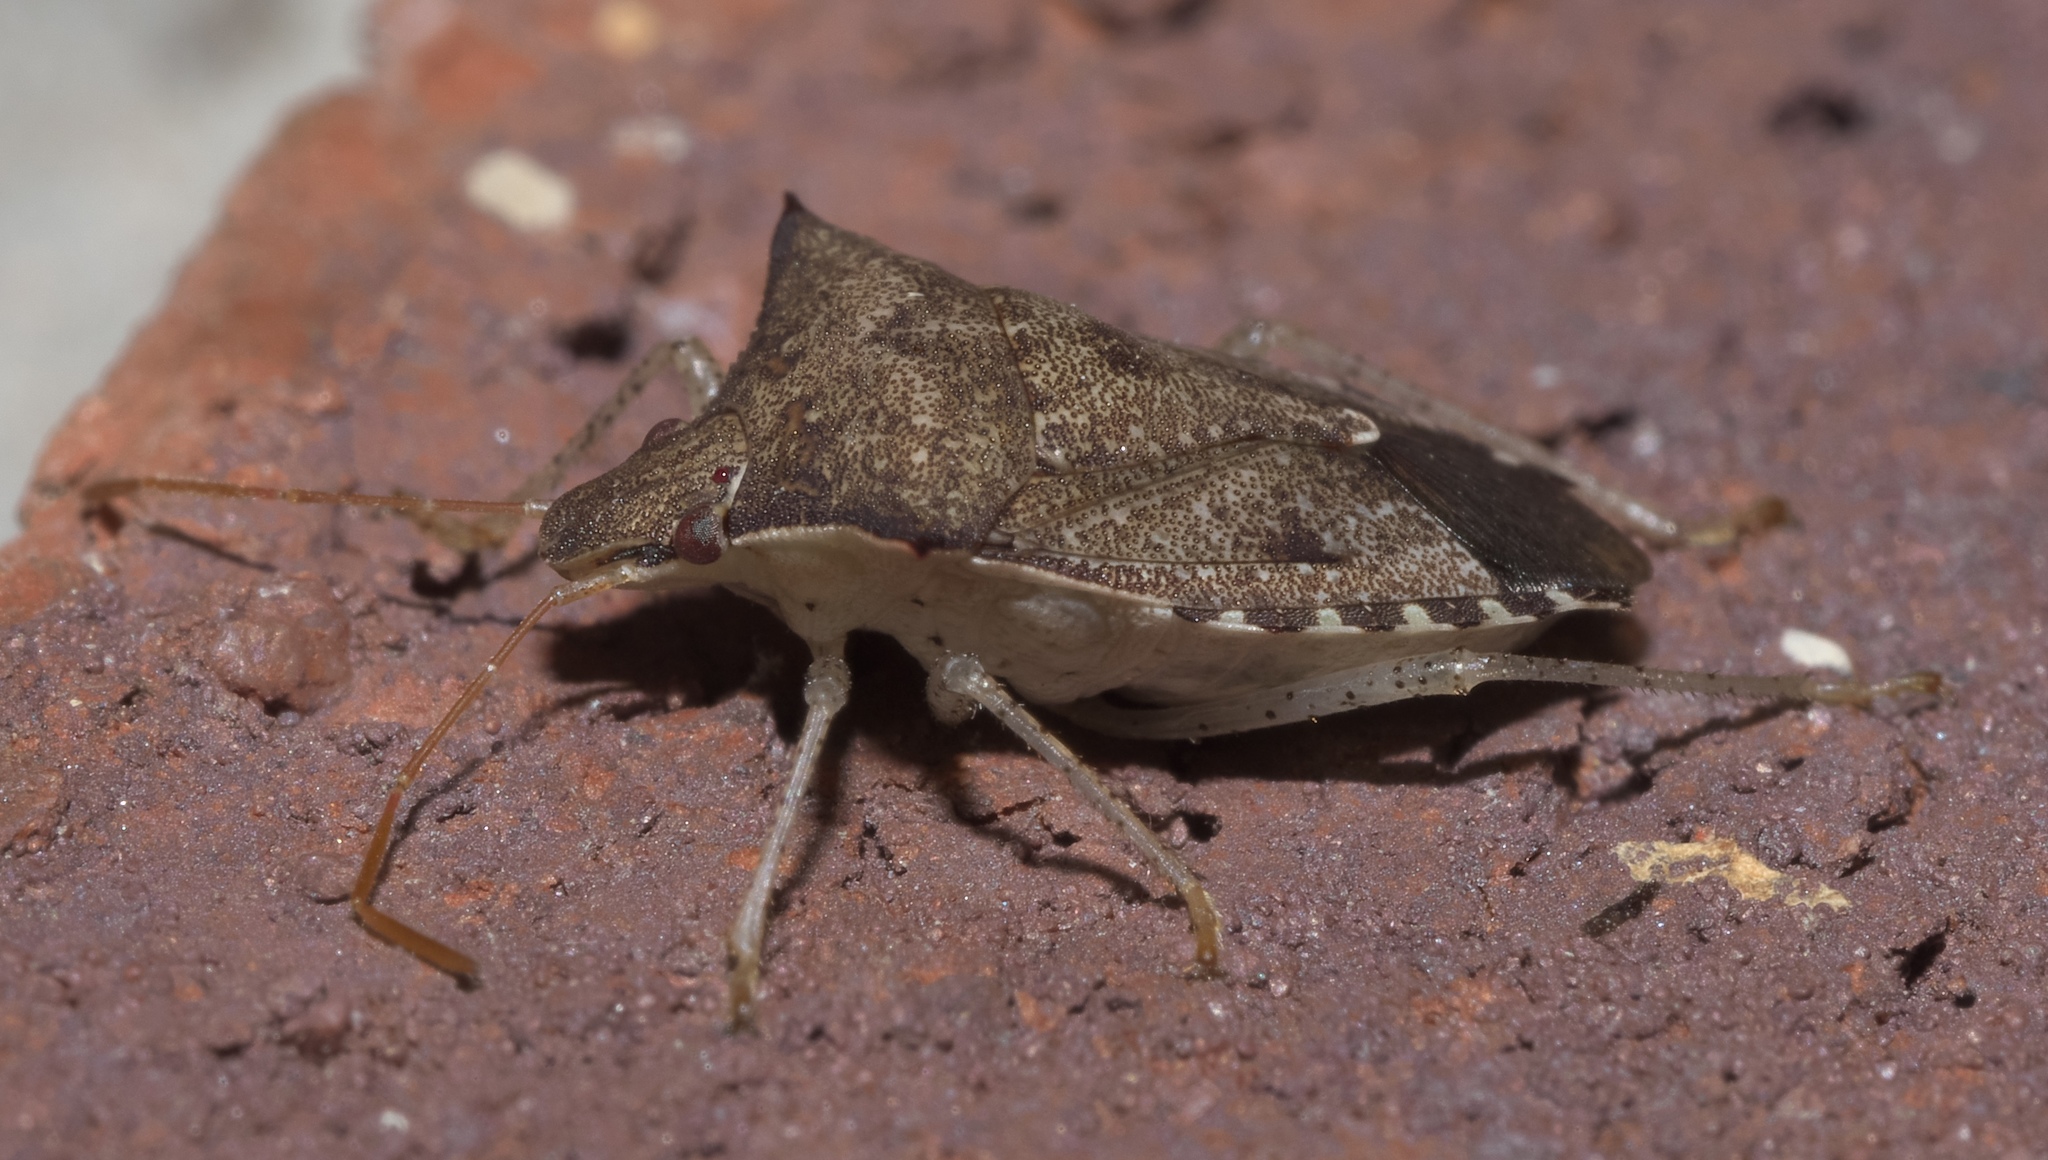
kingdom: Animalia
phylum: Arthropoda
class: Insecta
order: Hemiptera
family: Pentatomidae
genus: Euschistus
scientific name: Euschistus tristigmus
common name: Dusky stink bug
